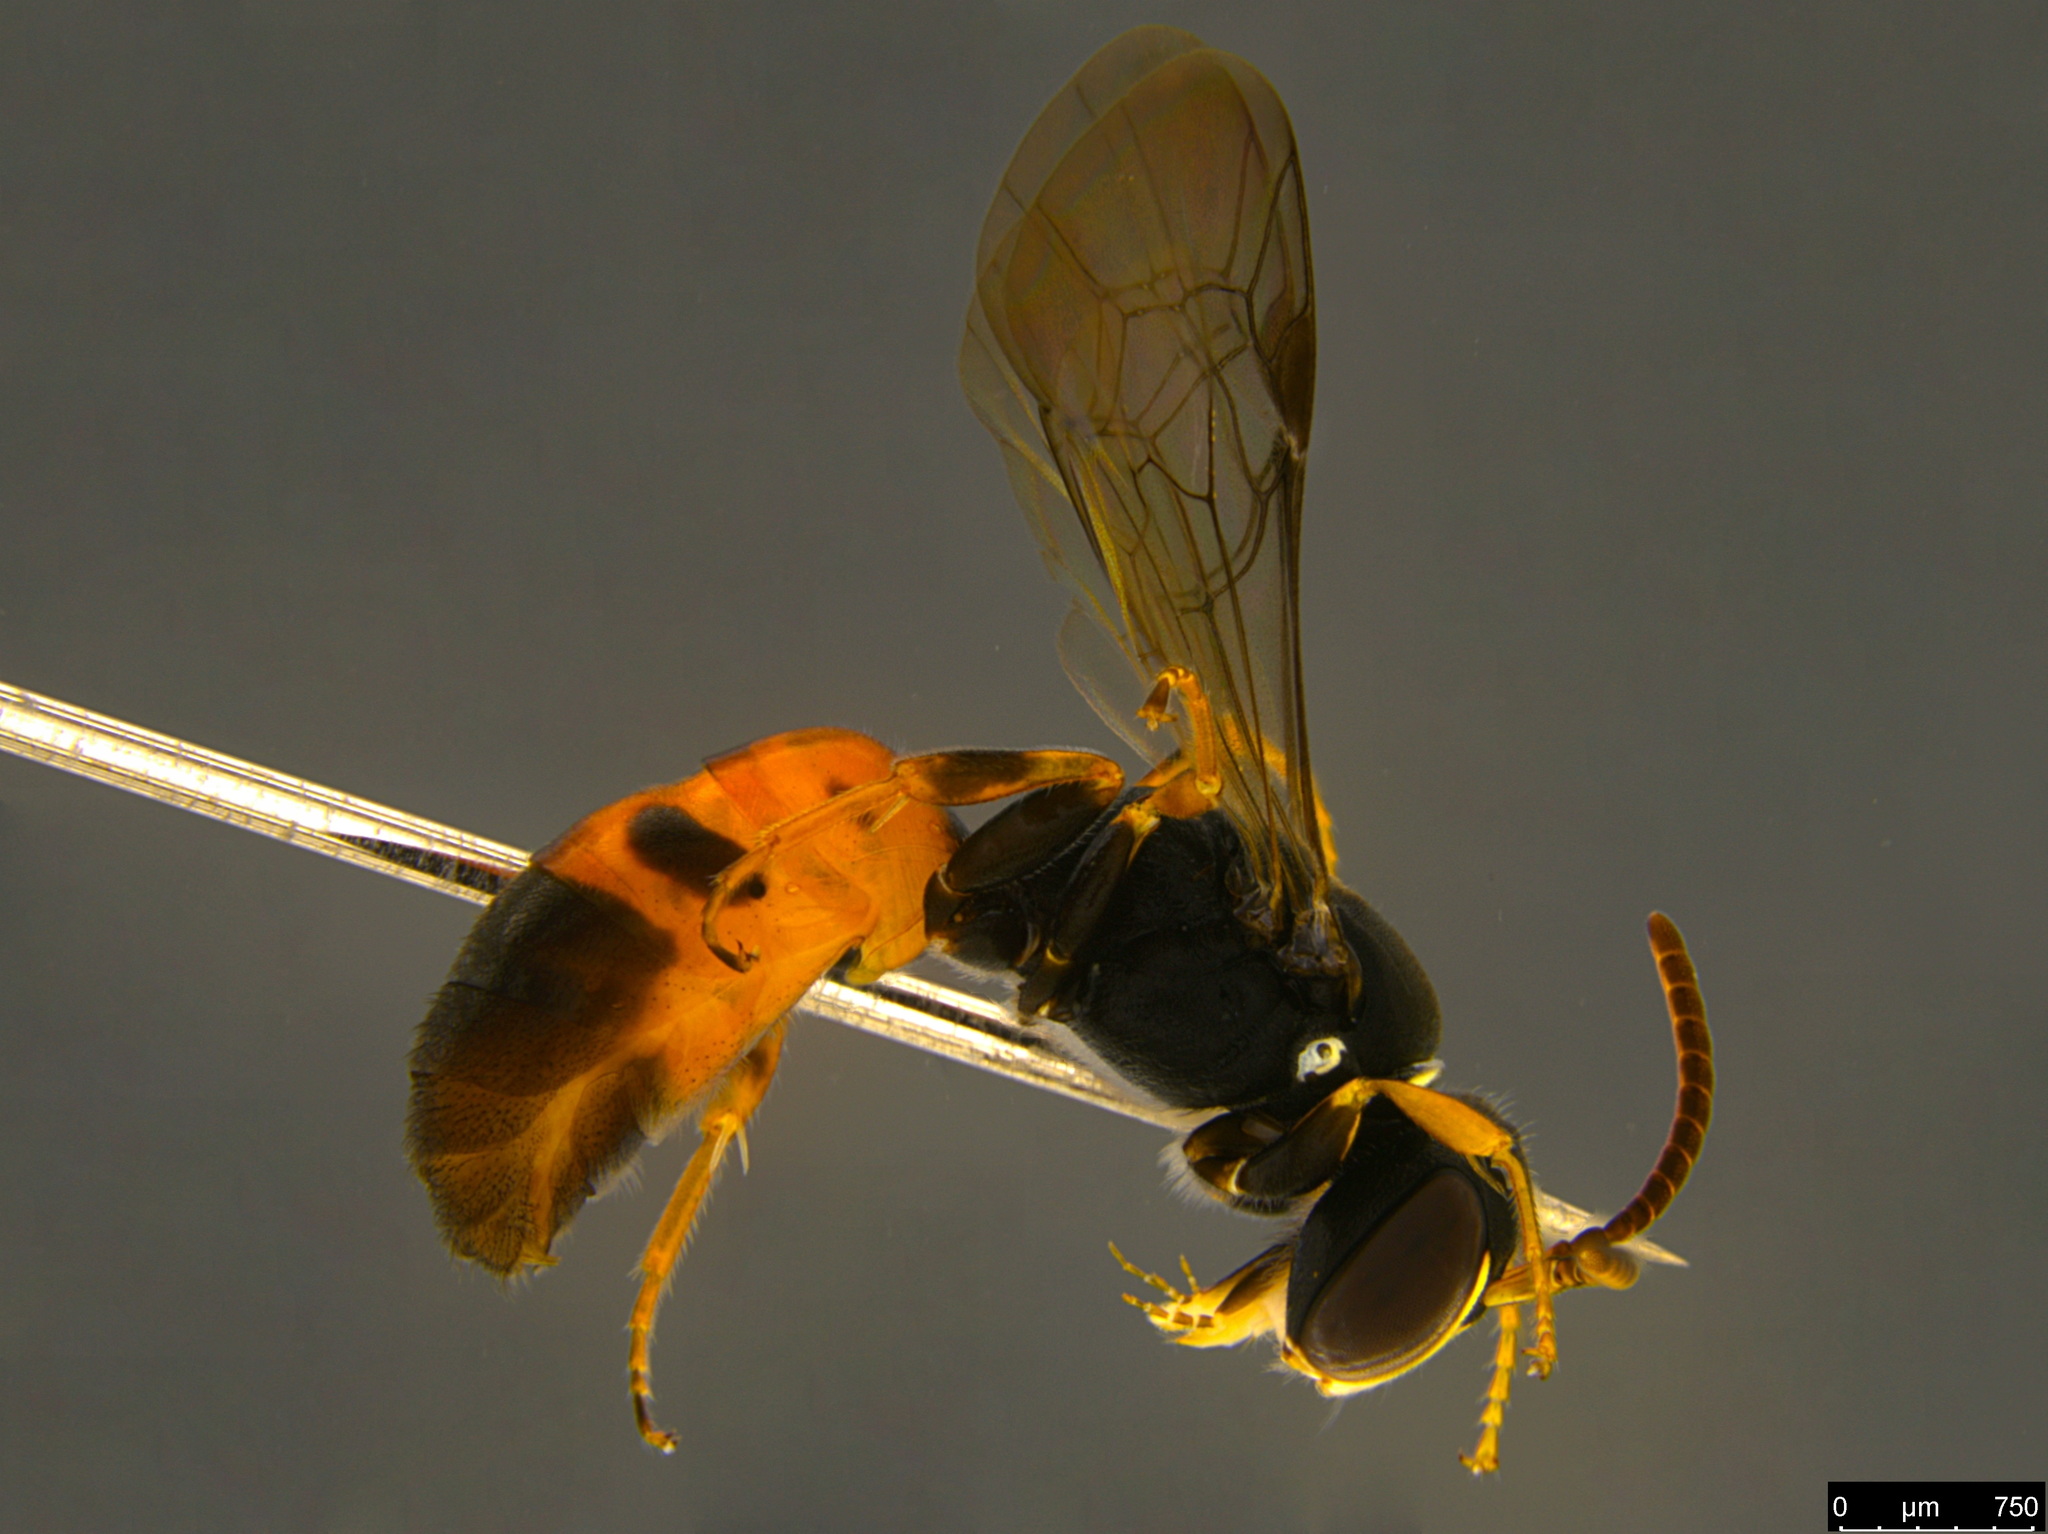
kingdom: Animalia
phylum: Arthropoda
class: Insecta
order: Hymenoptera
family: Colletidae
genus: Hylaeus
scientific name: Hylaeus littleri
